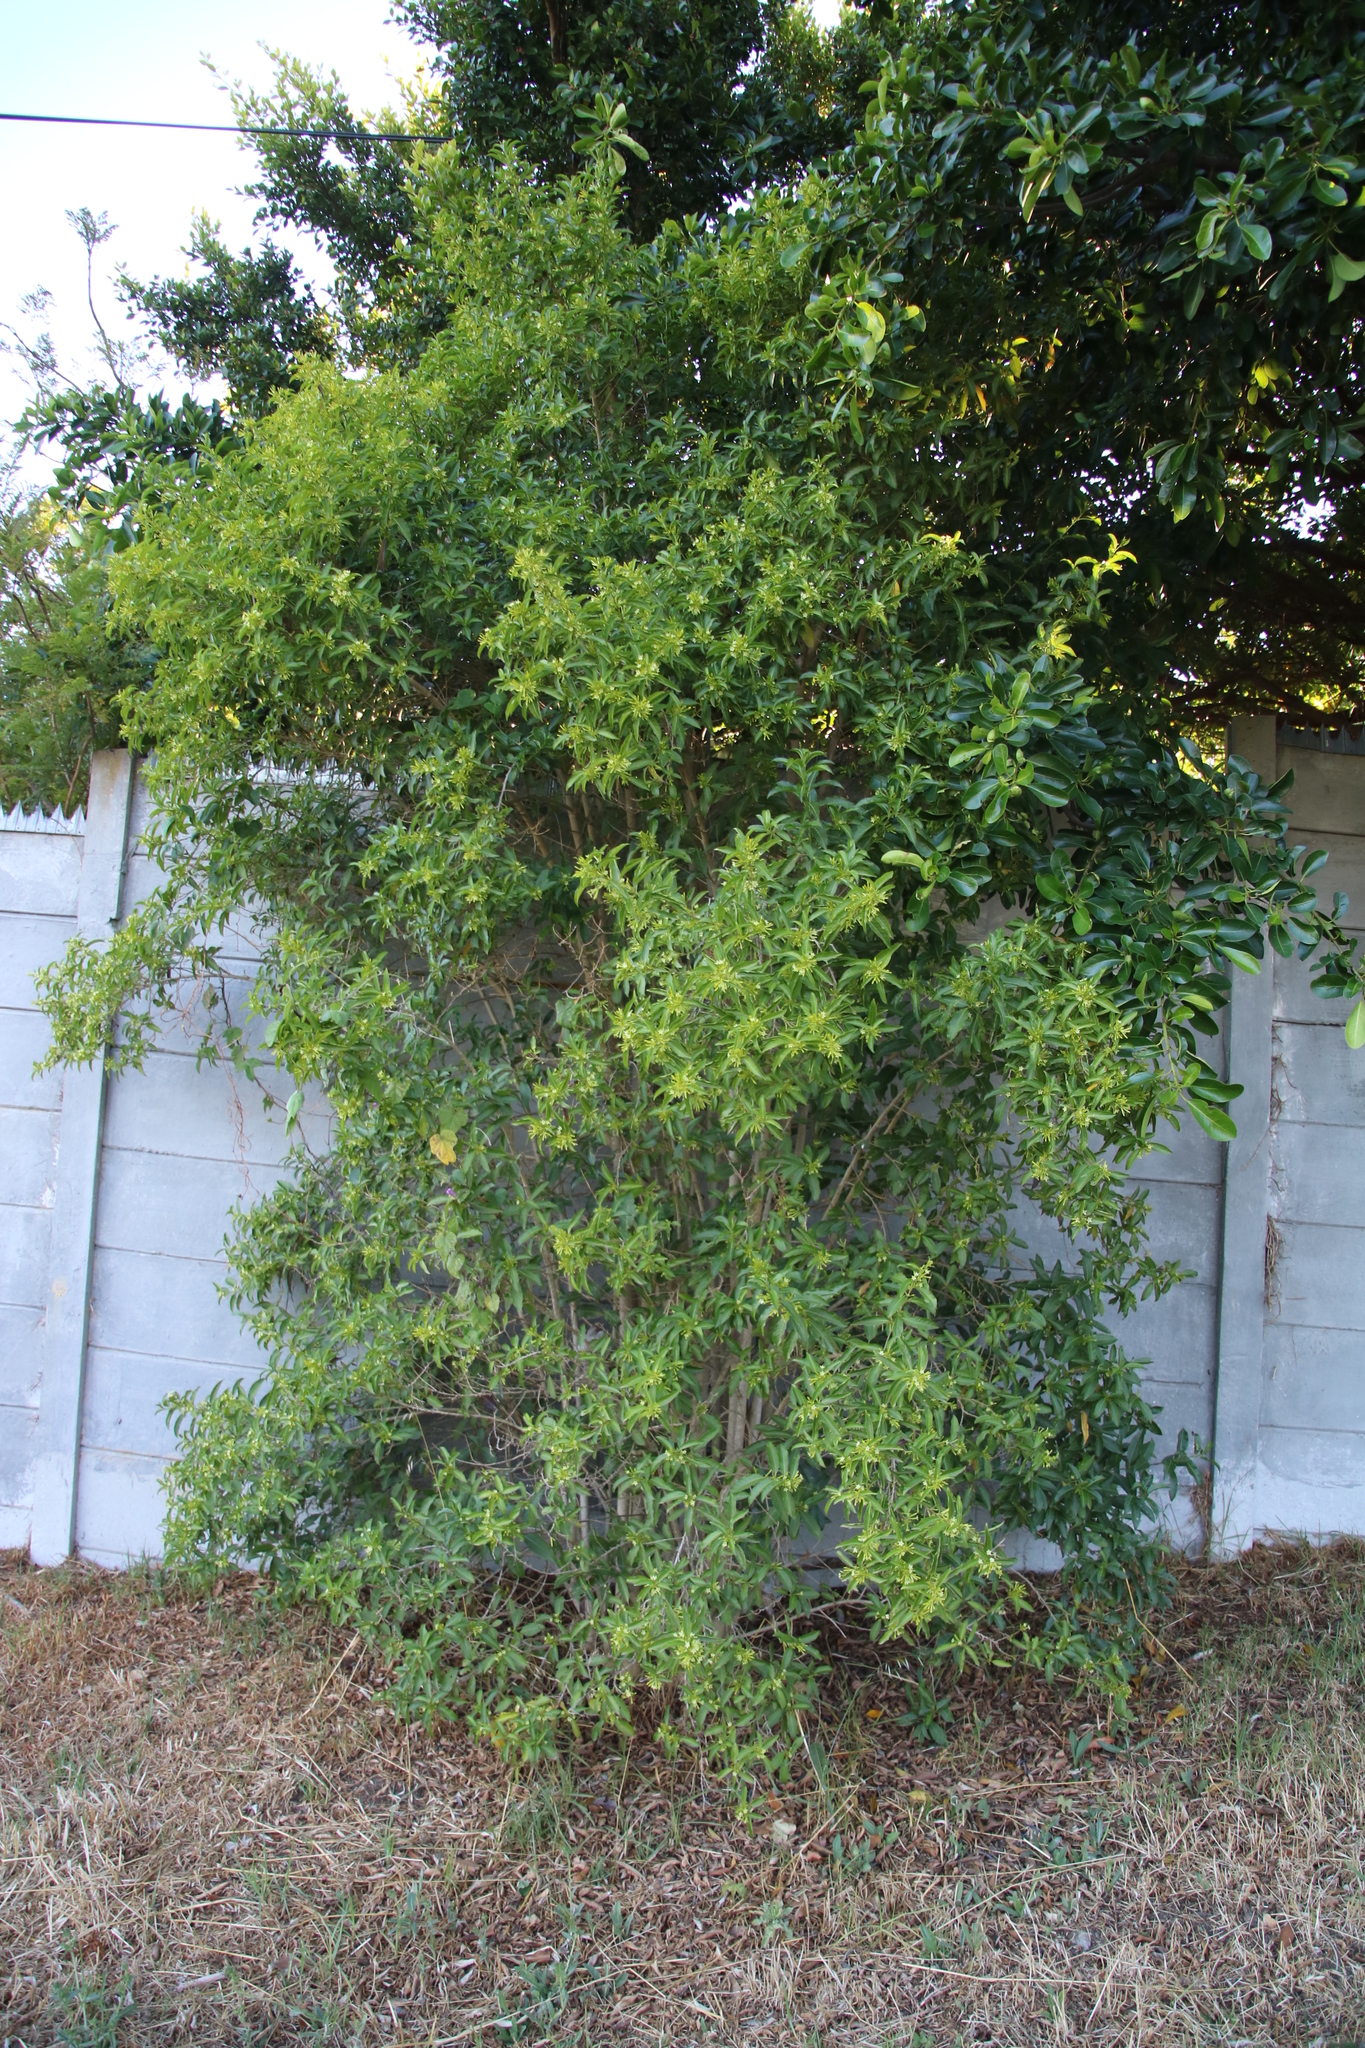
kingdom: Plantae
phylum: Tracheophyta
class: Magnoliopsida
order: Solanales
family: Solanaceae
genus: Cestrum
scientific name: Cestrum laevigatum
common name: Inkberry
